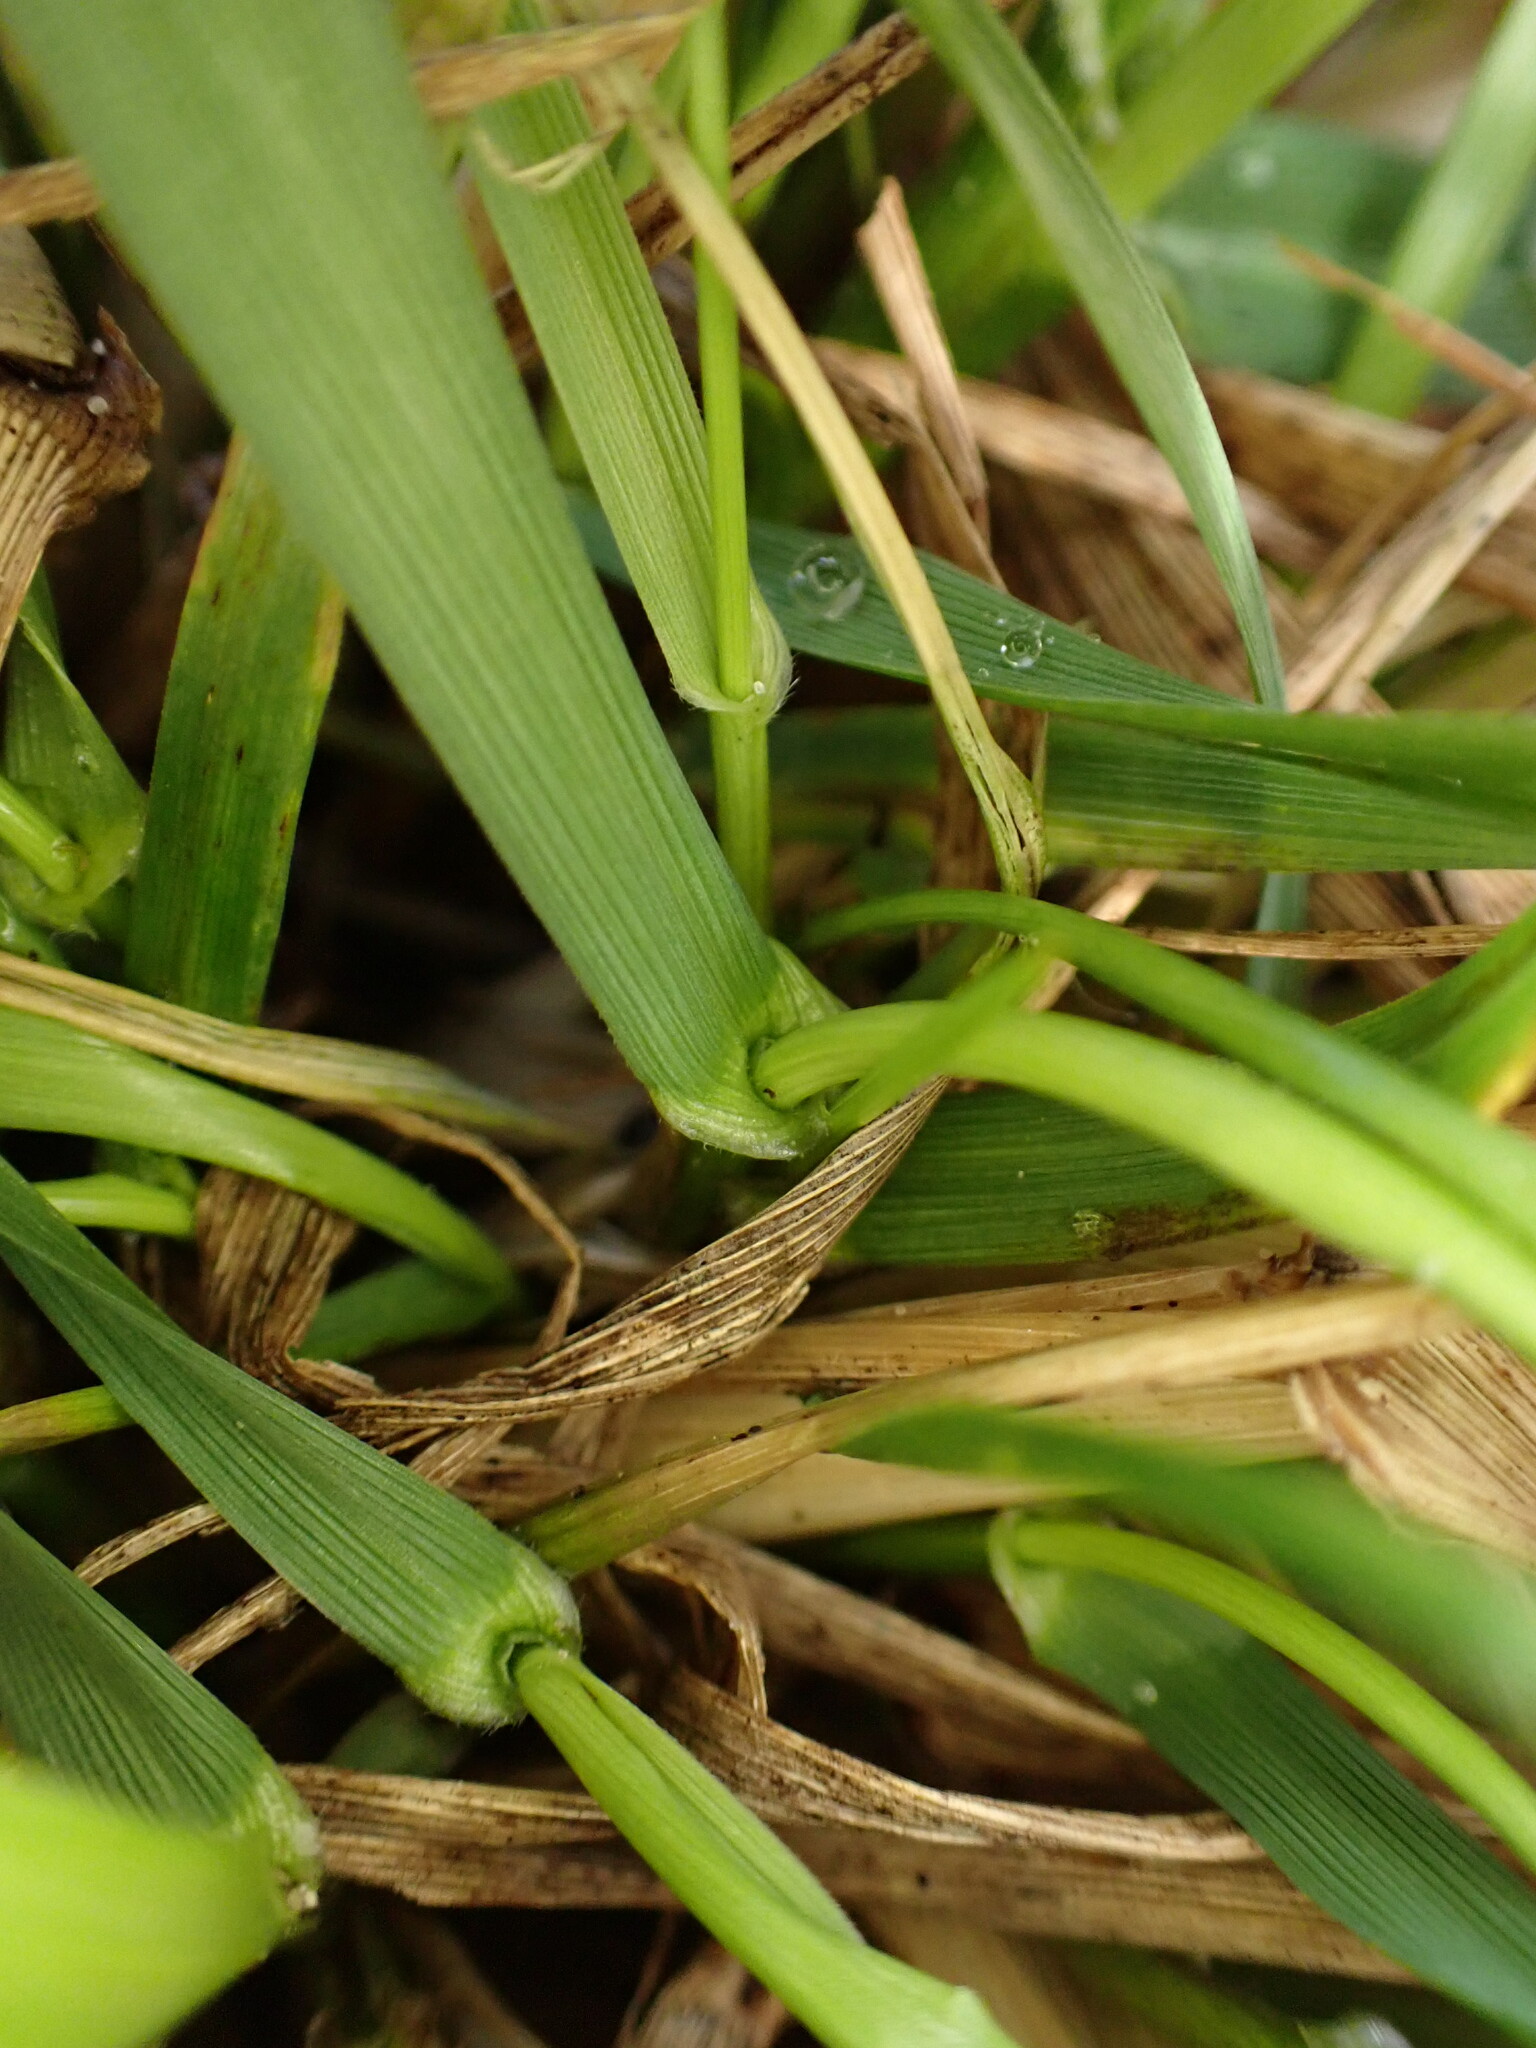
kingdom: Plantae
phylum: Tracheophyta
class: Liliopsida
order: Poales
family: Poaceae
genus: Lolium
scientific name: Lolium arundinaceum
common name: Reed fescue
